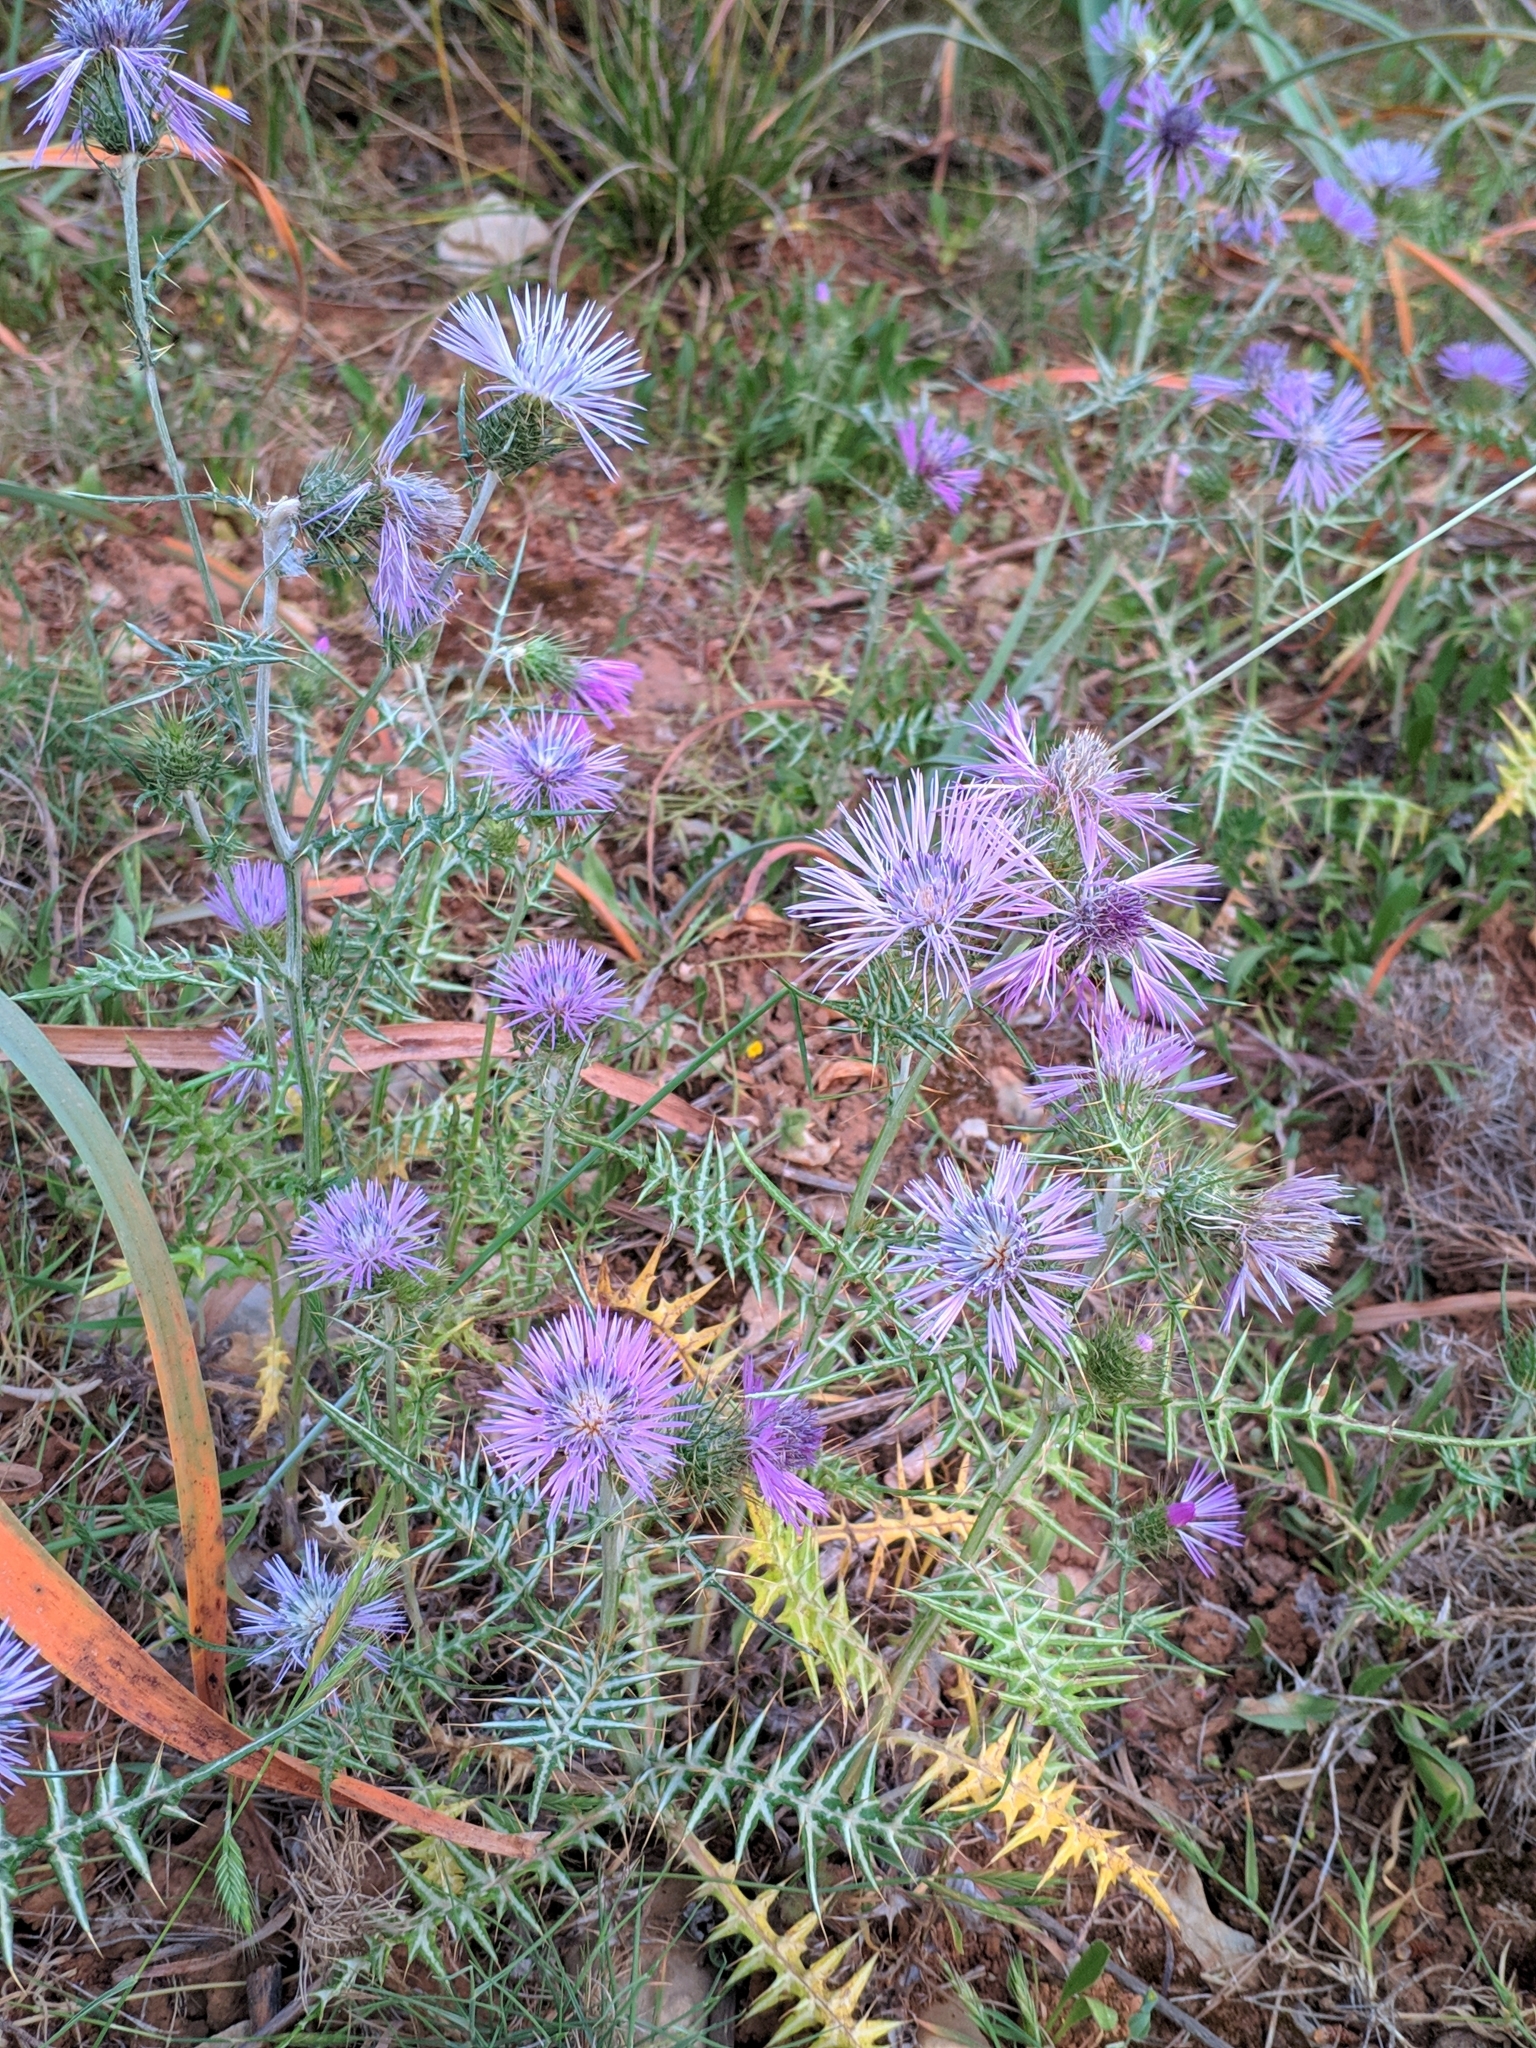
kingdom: Plantae
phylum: Tracheophyta
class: Magnoliopsida
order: Asterales
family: Asteraceae
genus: Galactites
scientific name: Galactites tomentosa
